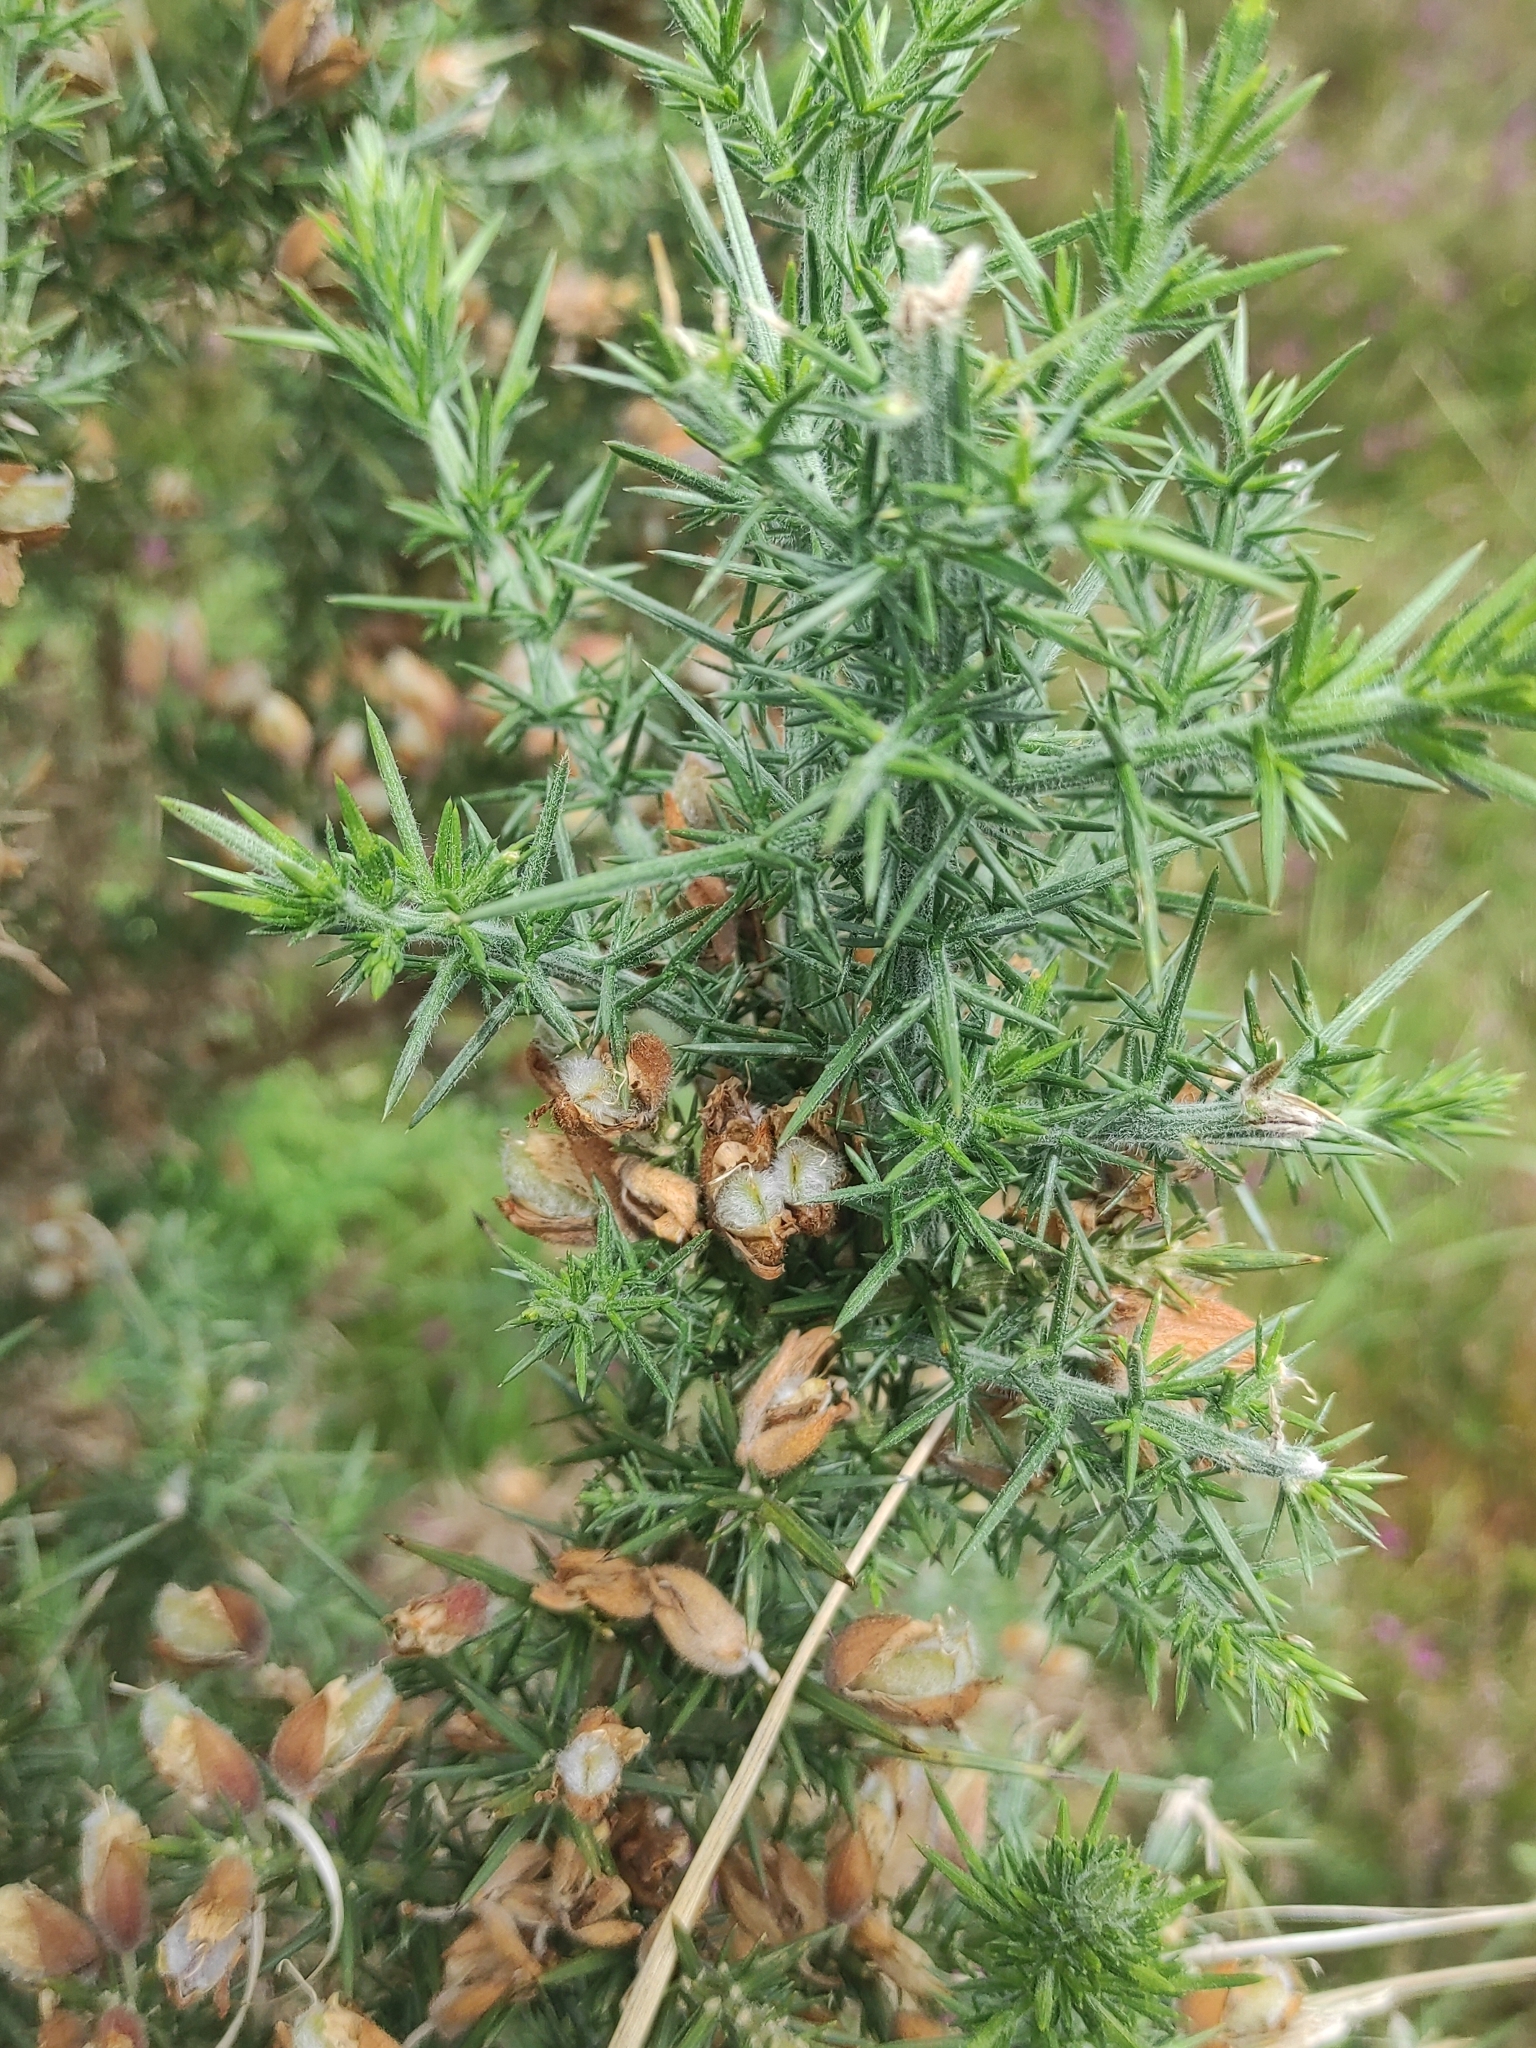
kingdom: Plantae
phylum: Tracheophyta
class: Magnoliopsida
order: Fabales
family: Fabaceae
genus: Ulex
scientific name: Ulex europaeus
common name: Common gorse
